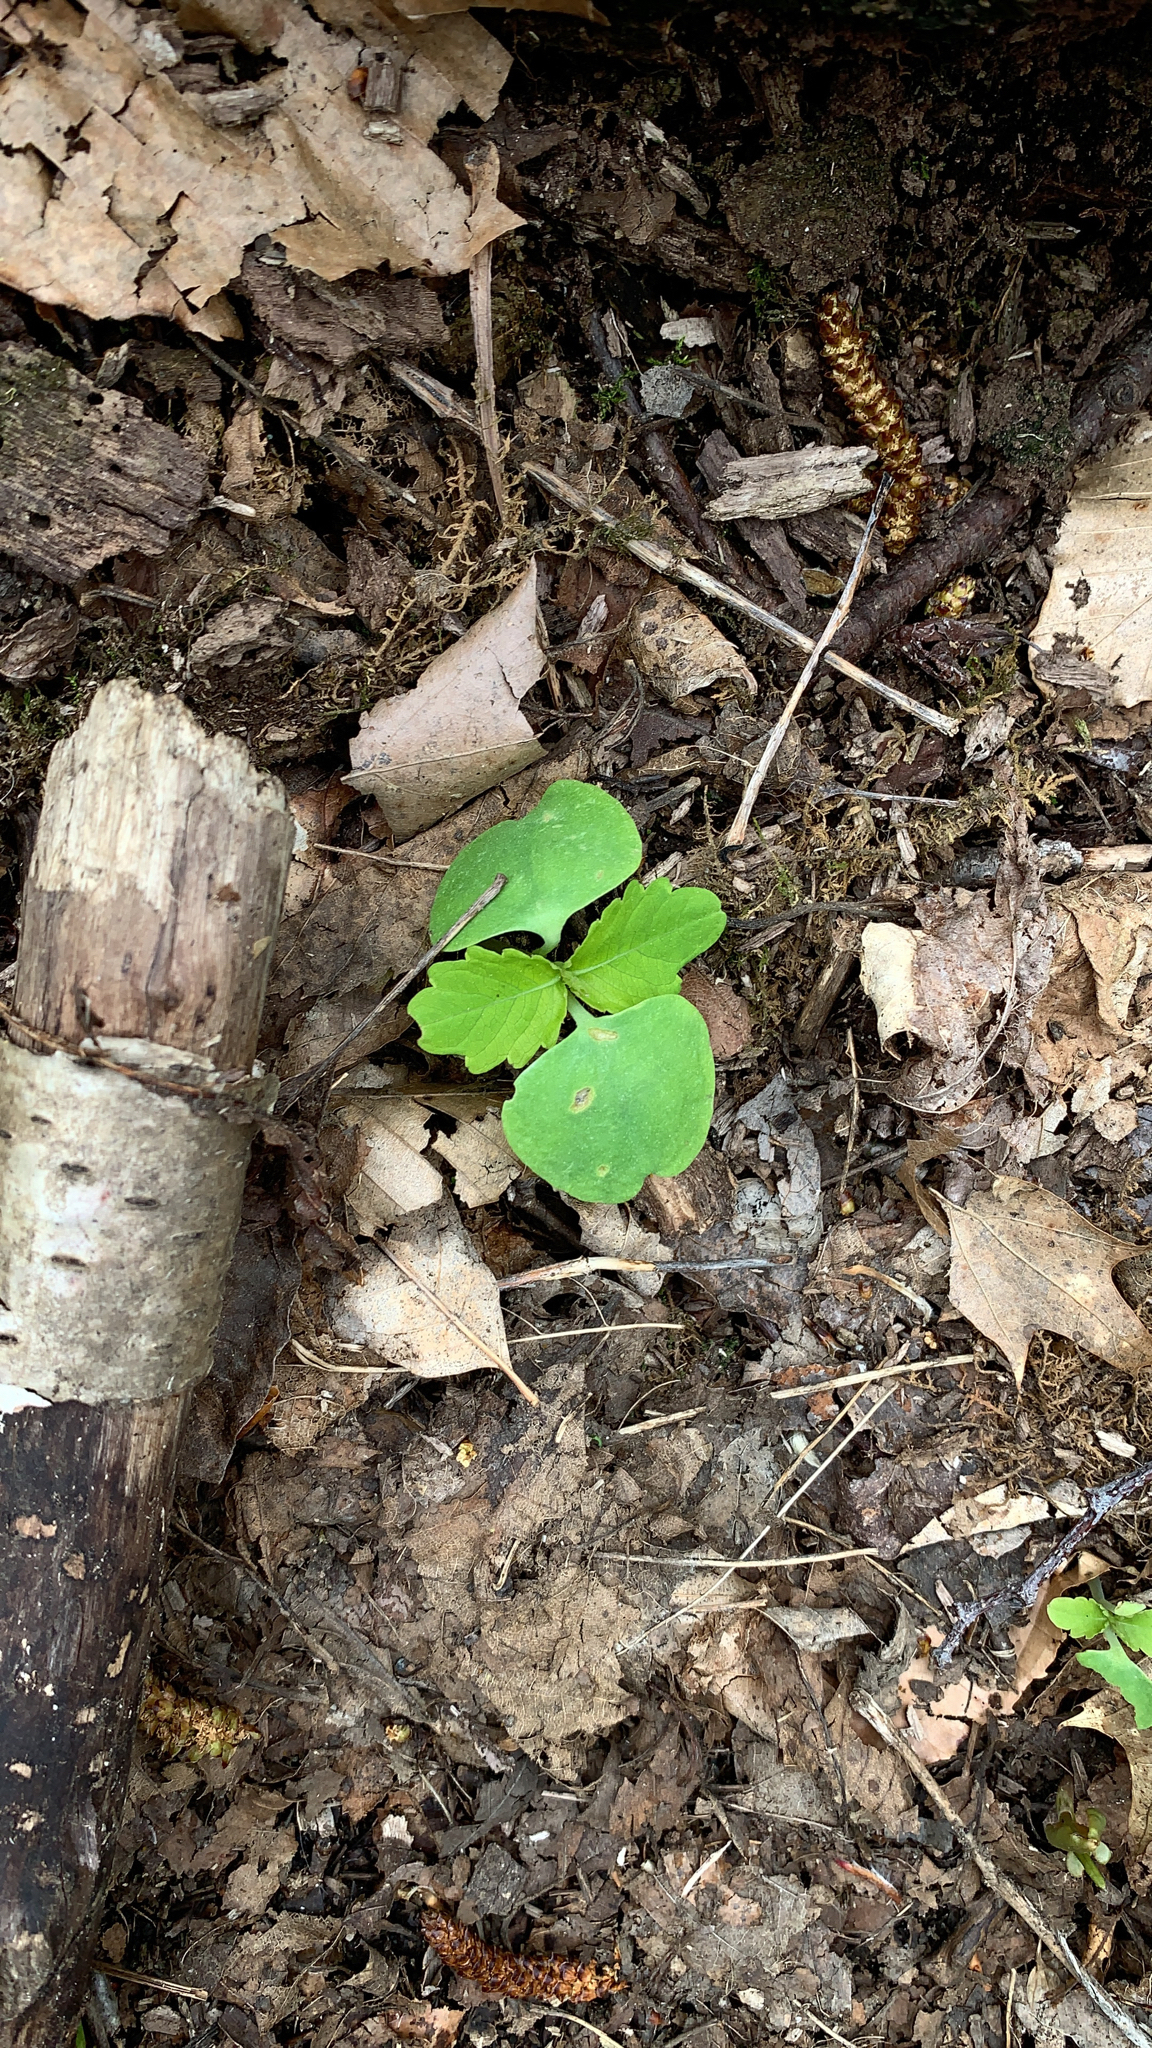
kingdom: Plantae
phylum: Tracheophyta
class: Magnoliopsida
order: Ericales
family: Balsaminaceae
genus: Impatiens
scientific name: Impatiens
